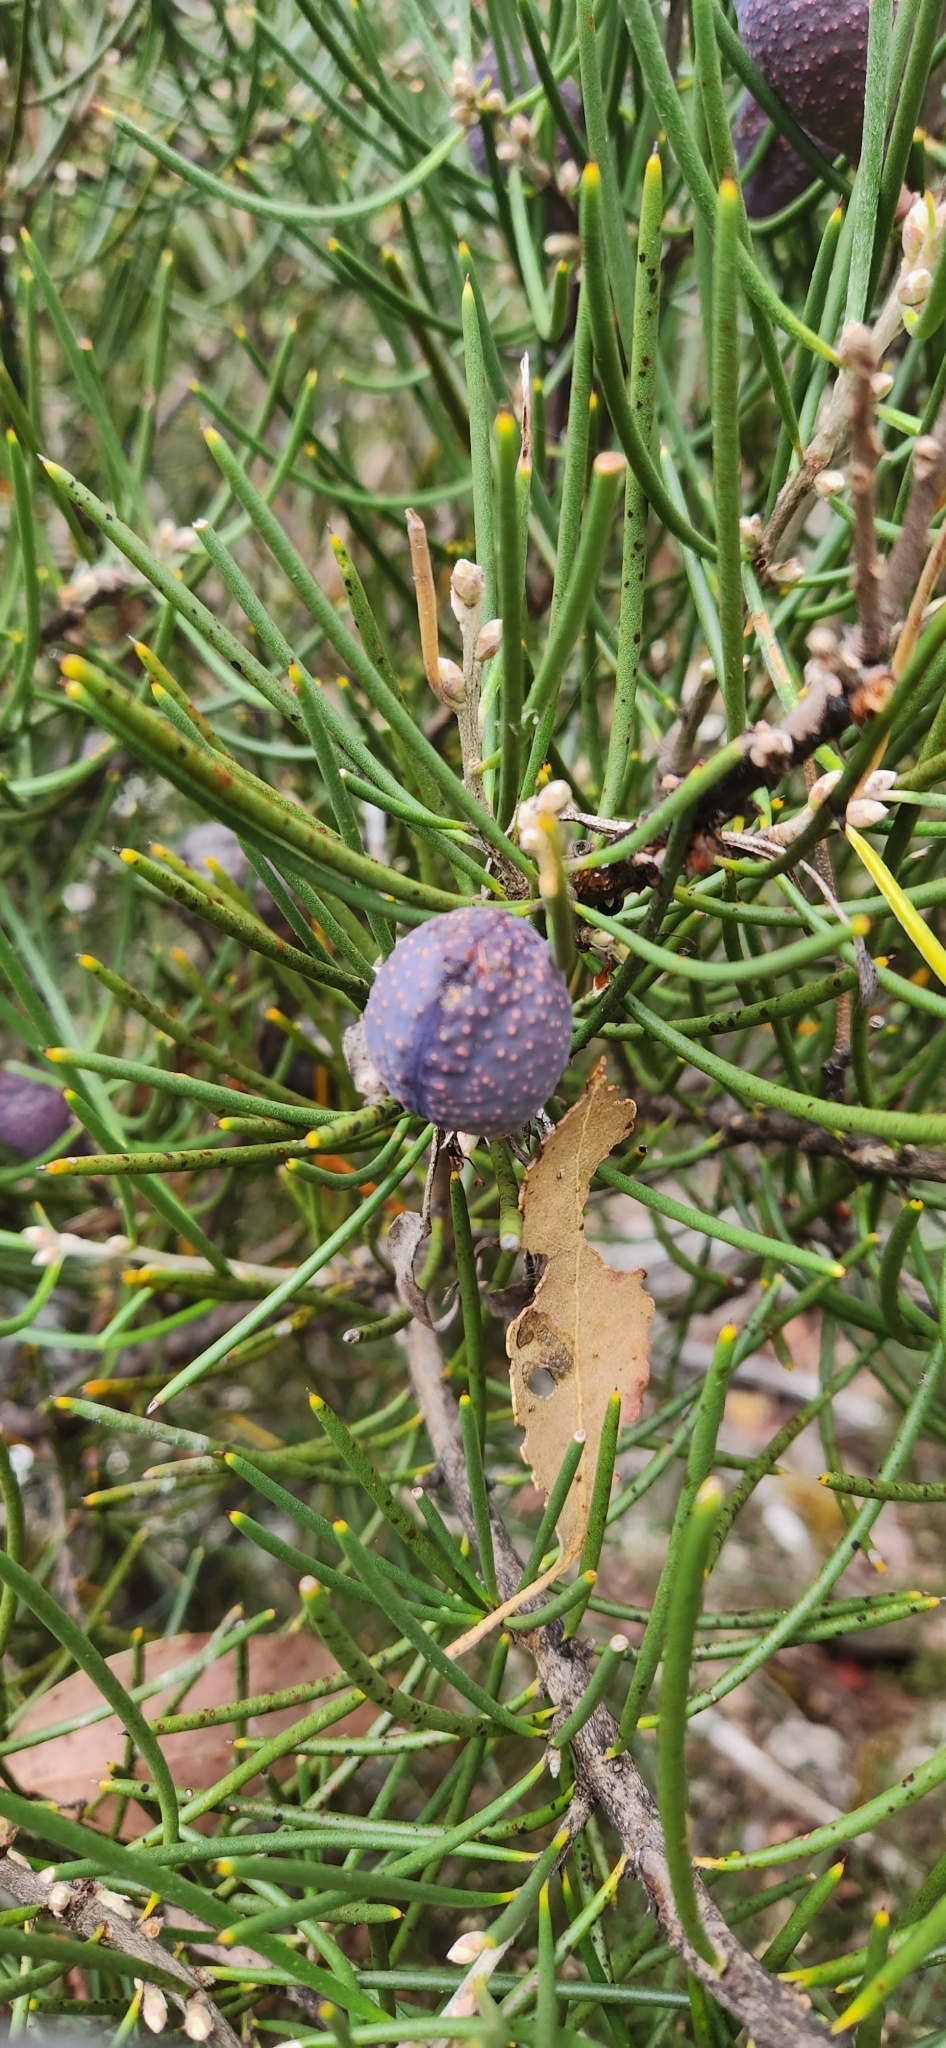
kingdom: Plantae
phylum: Tracheophyta
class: Magnoliopsida
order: Proteales
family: Proteaceae
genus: Hakea
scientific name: Hakea lissosperma
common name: Mountain needlewood
